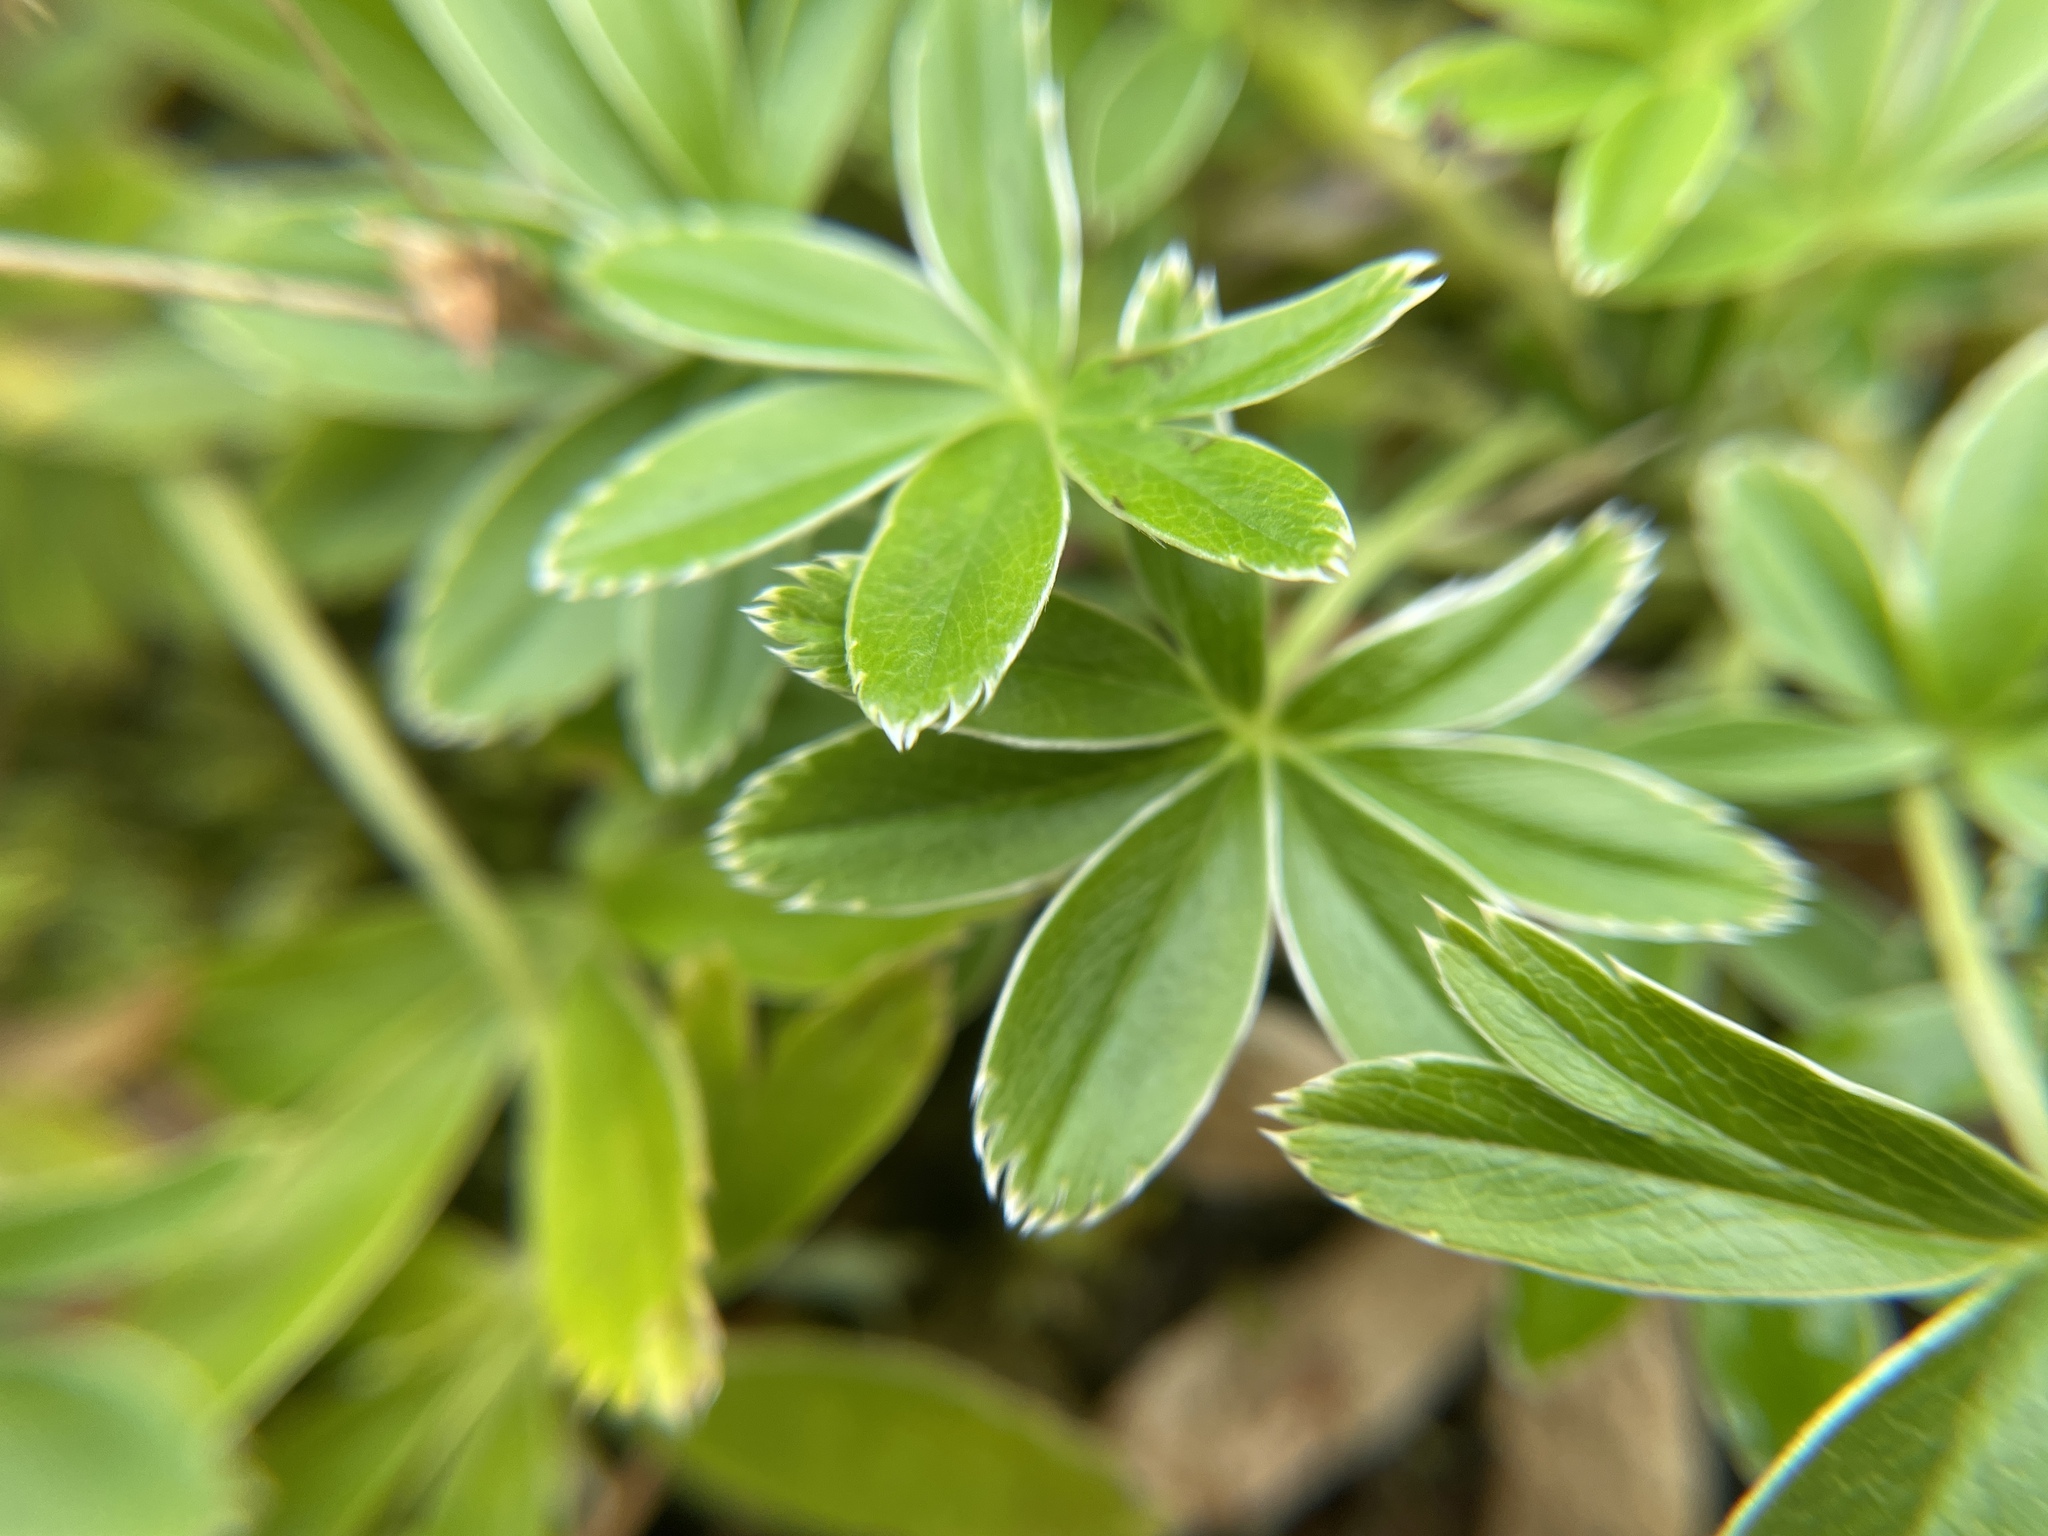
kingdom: Plantae
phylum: Tracheophyta
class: Magnoliopsida
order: Rosales
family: Rosaceae
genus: Alchemilla
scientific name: Alchemilla alpina
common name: Alpine lady's-mantle
